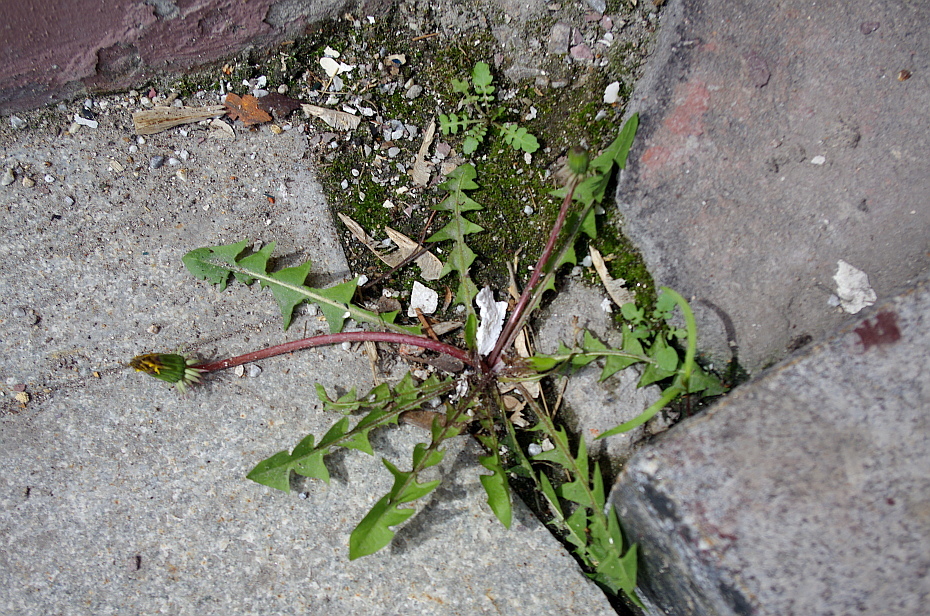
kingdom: Plantae
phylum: Tracheophyta
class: Magnoliopsida
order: Asterales
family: Asteraceae
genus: Taraxacum
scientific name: Taraxacum officinale
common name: Common dandelion
